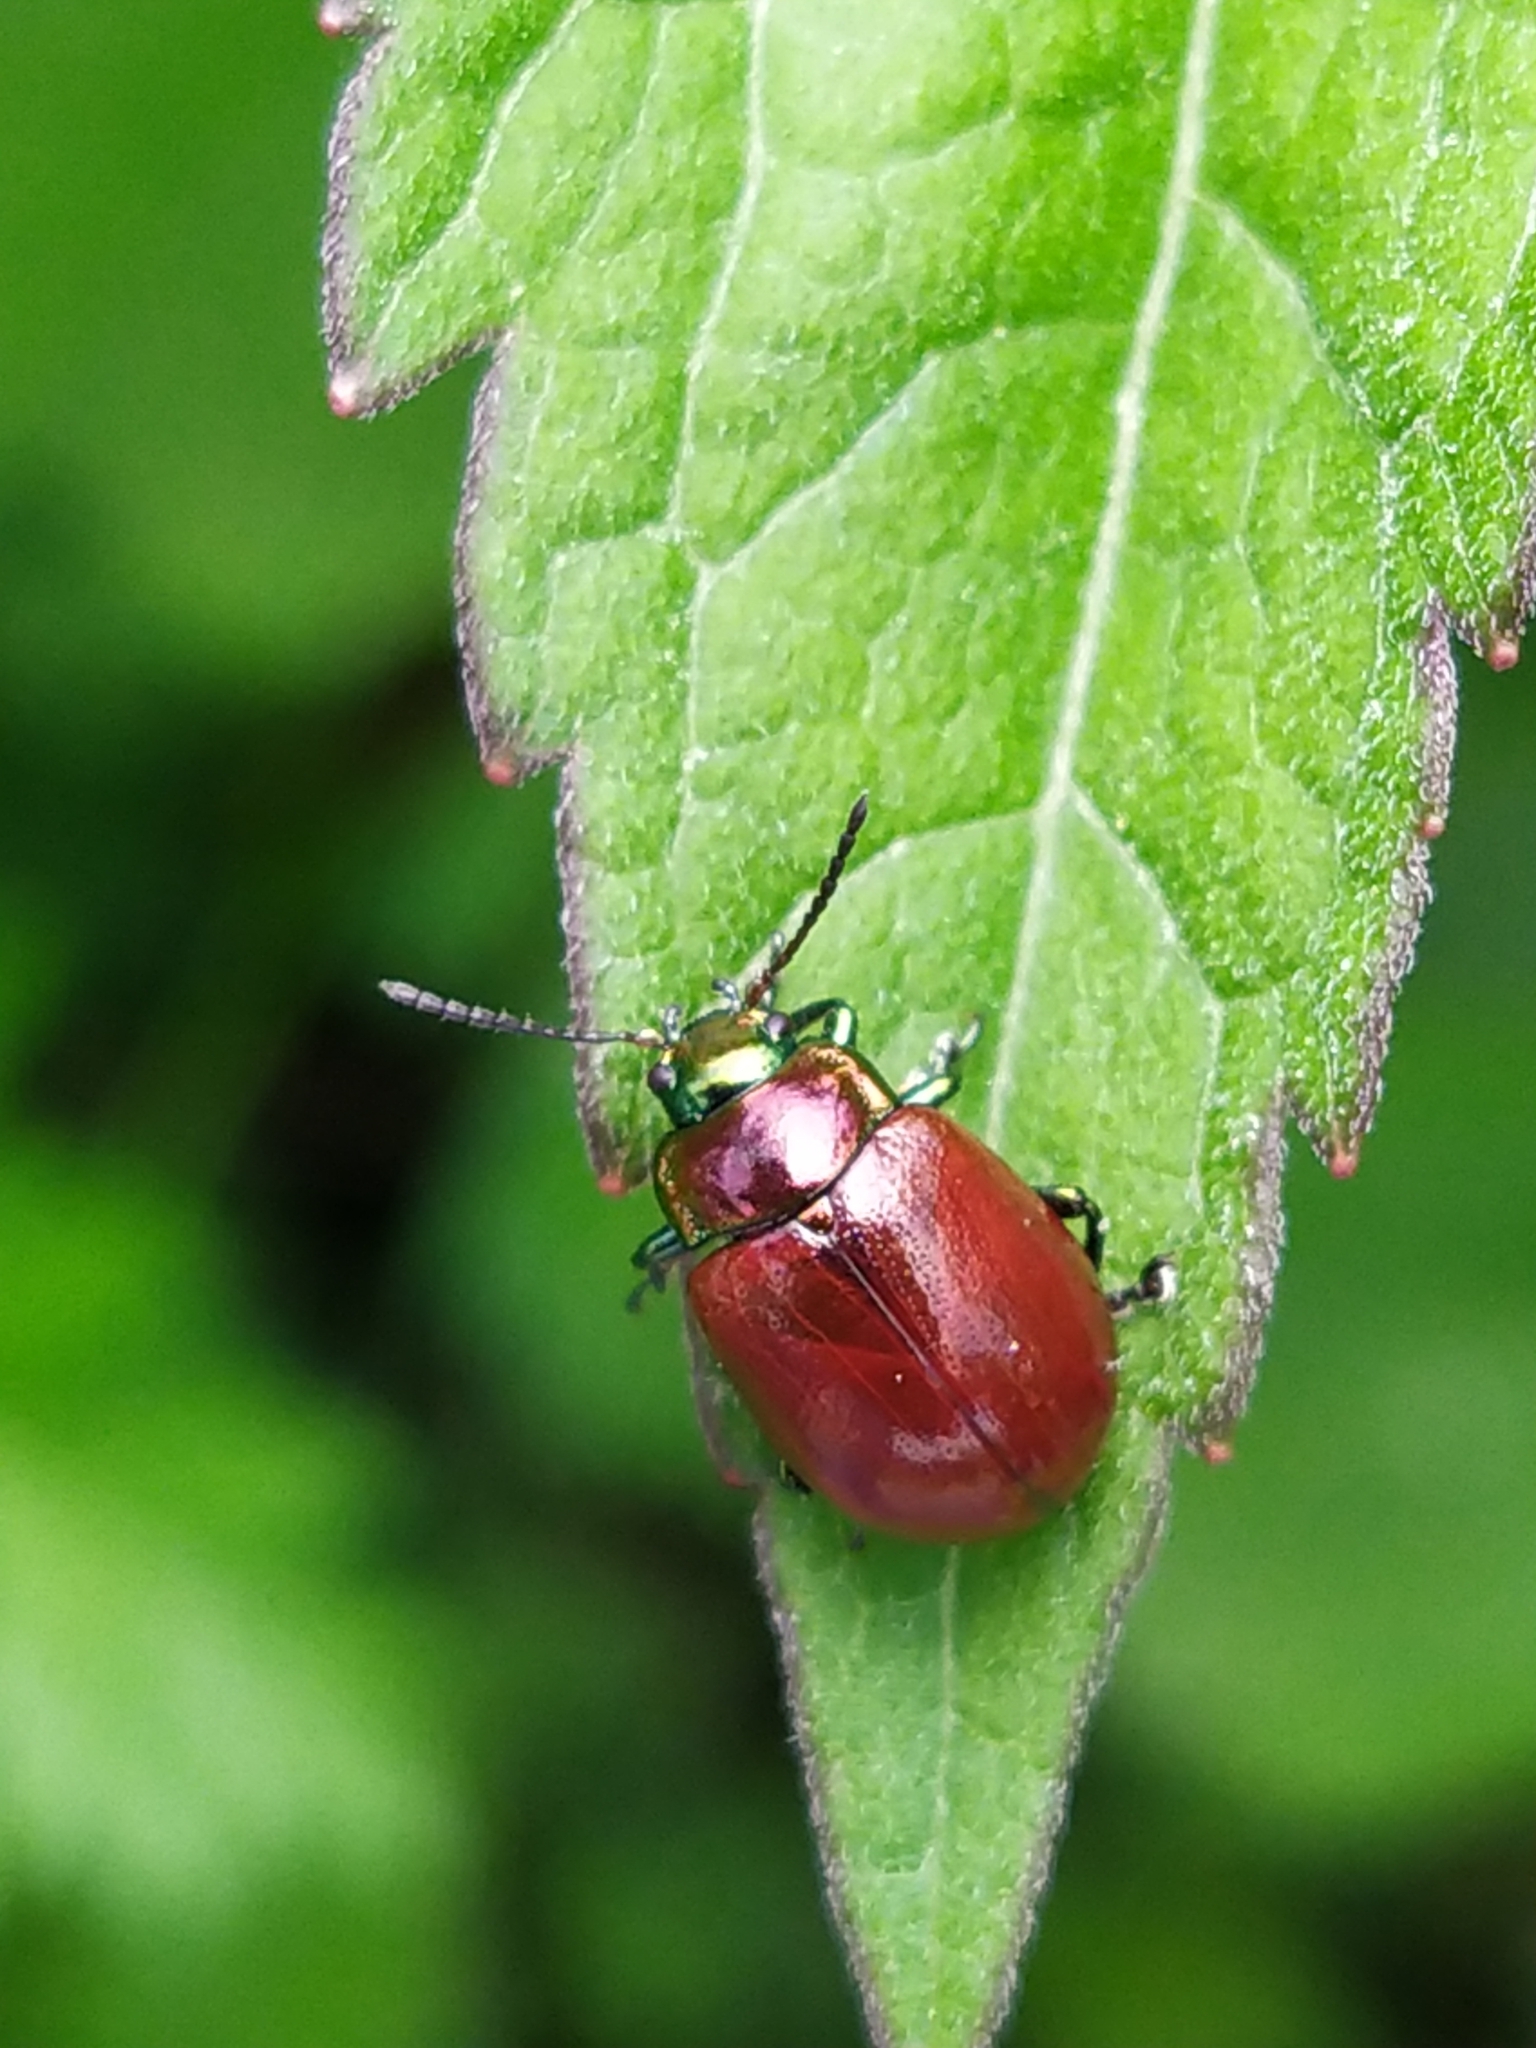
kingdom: Animalia
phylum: Arthropoda
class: Insecta
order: Coleoptera
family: Chrysomelidae
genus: Chrysomela
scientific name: Chrysomela polita
